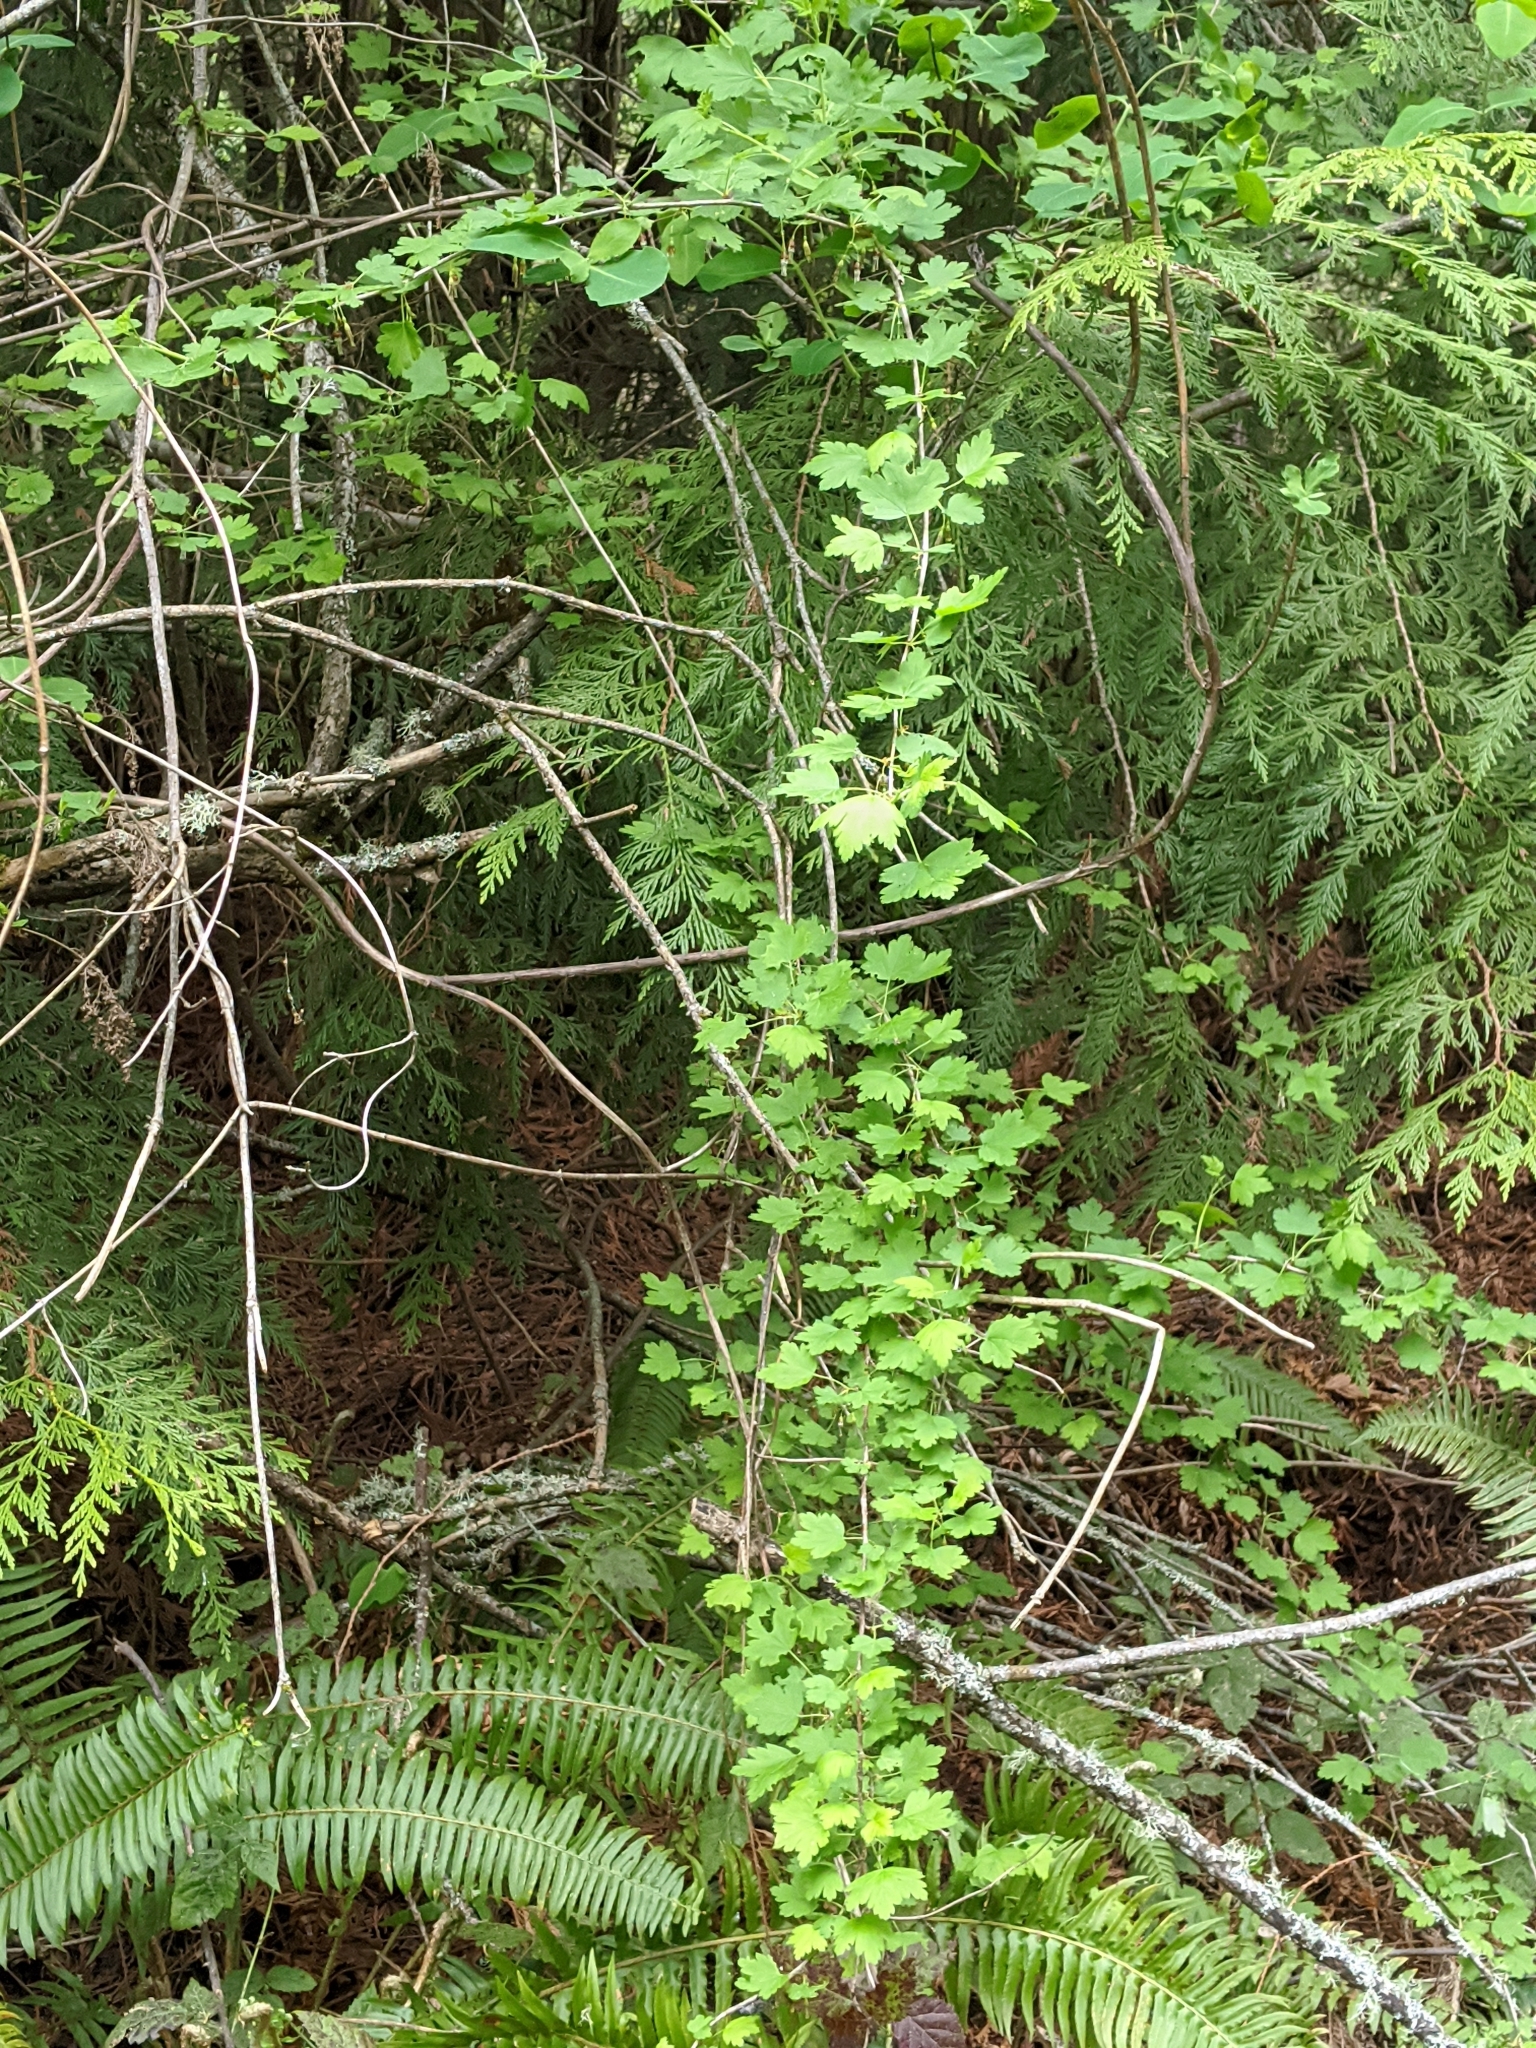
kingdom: Plantae
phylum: Tracheophyta
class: Magnoliopsida
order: Saxifragales
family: Grossulariaceae
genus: Ribes
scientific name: Ribes divaricatum
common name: Wild black gooseberry
